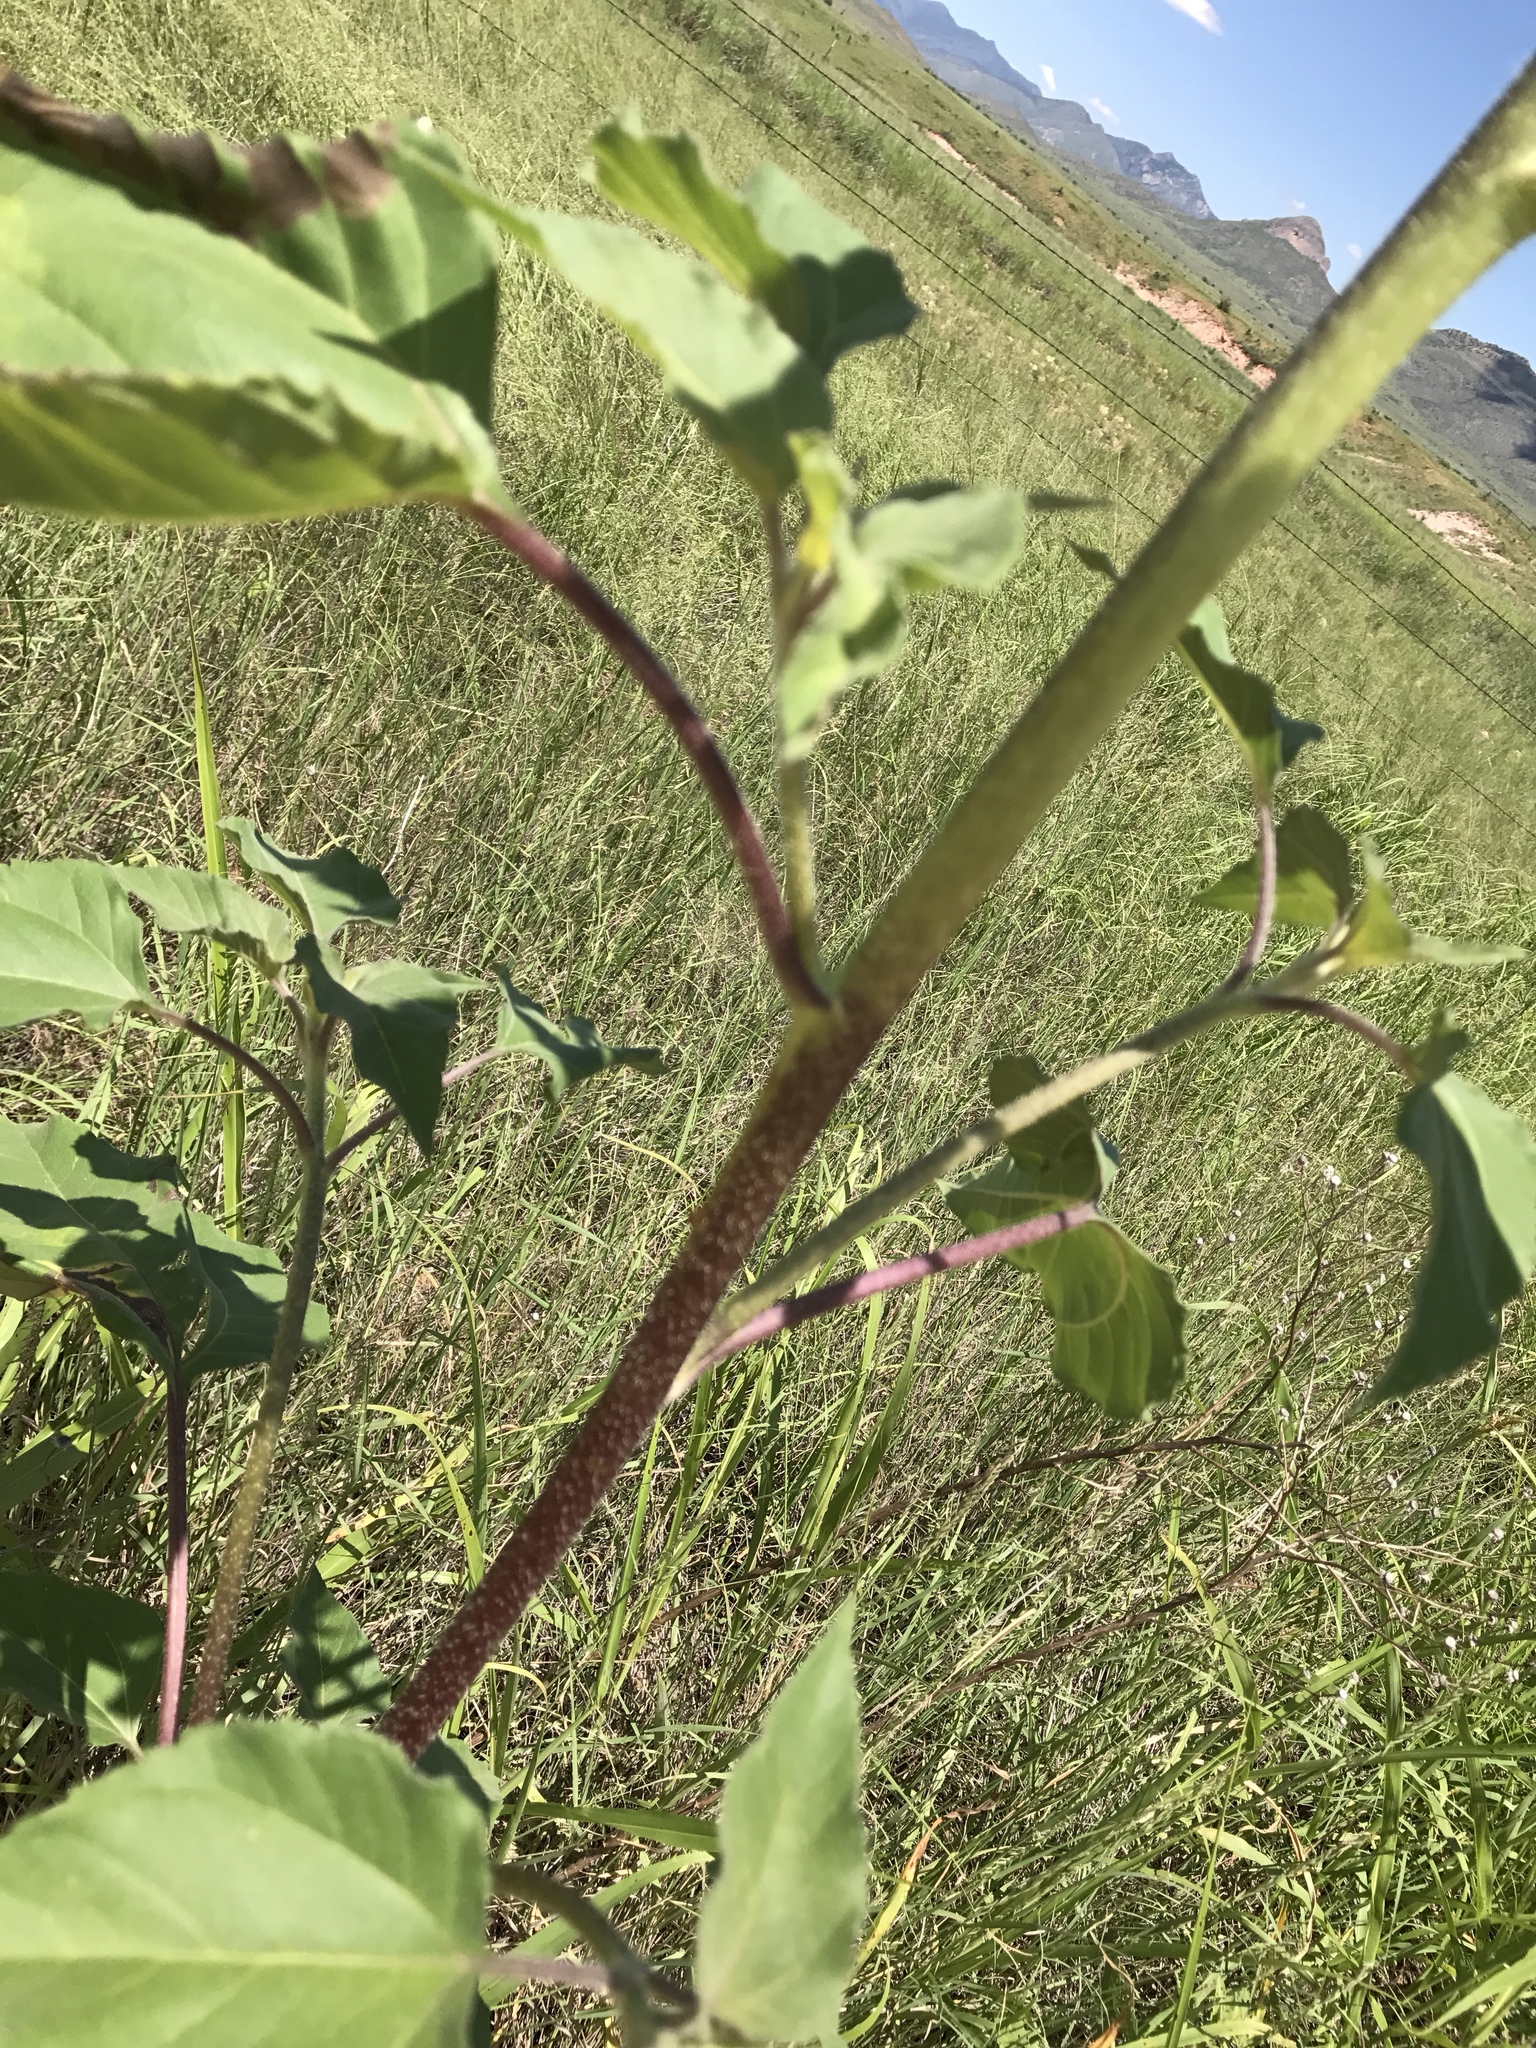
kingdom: Plantae
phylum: Tracheophyta
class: Magnoliopsida
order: Asterales
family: Asteraceae
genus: Helianthus
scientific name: Helianthus annuus
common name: Sunflower
